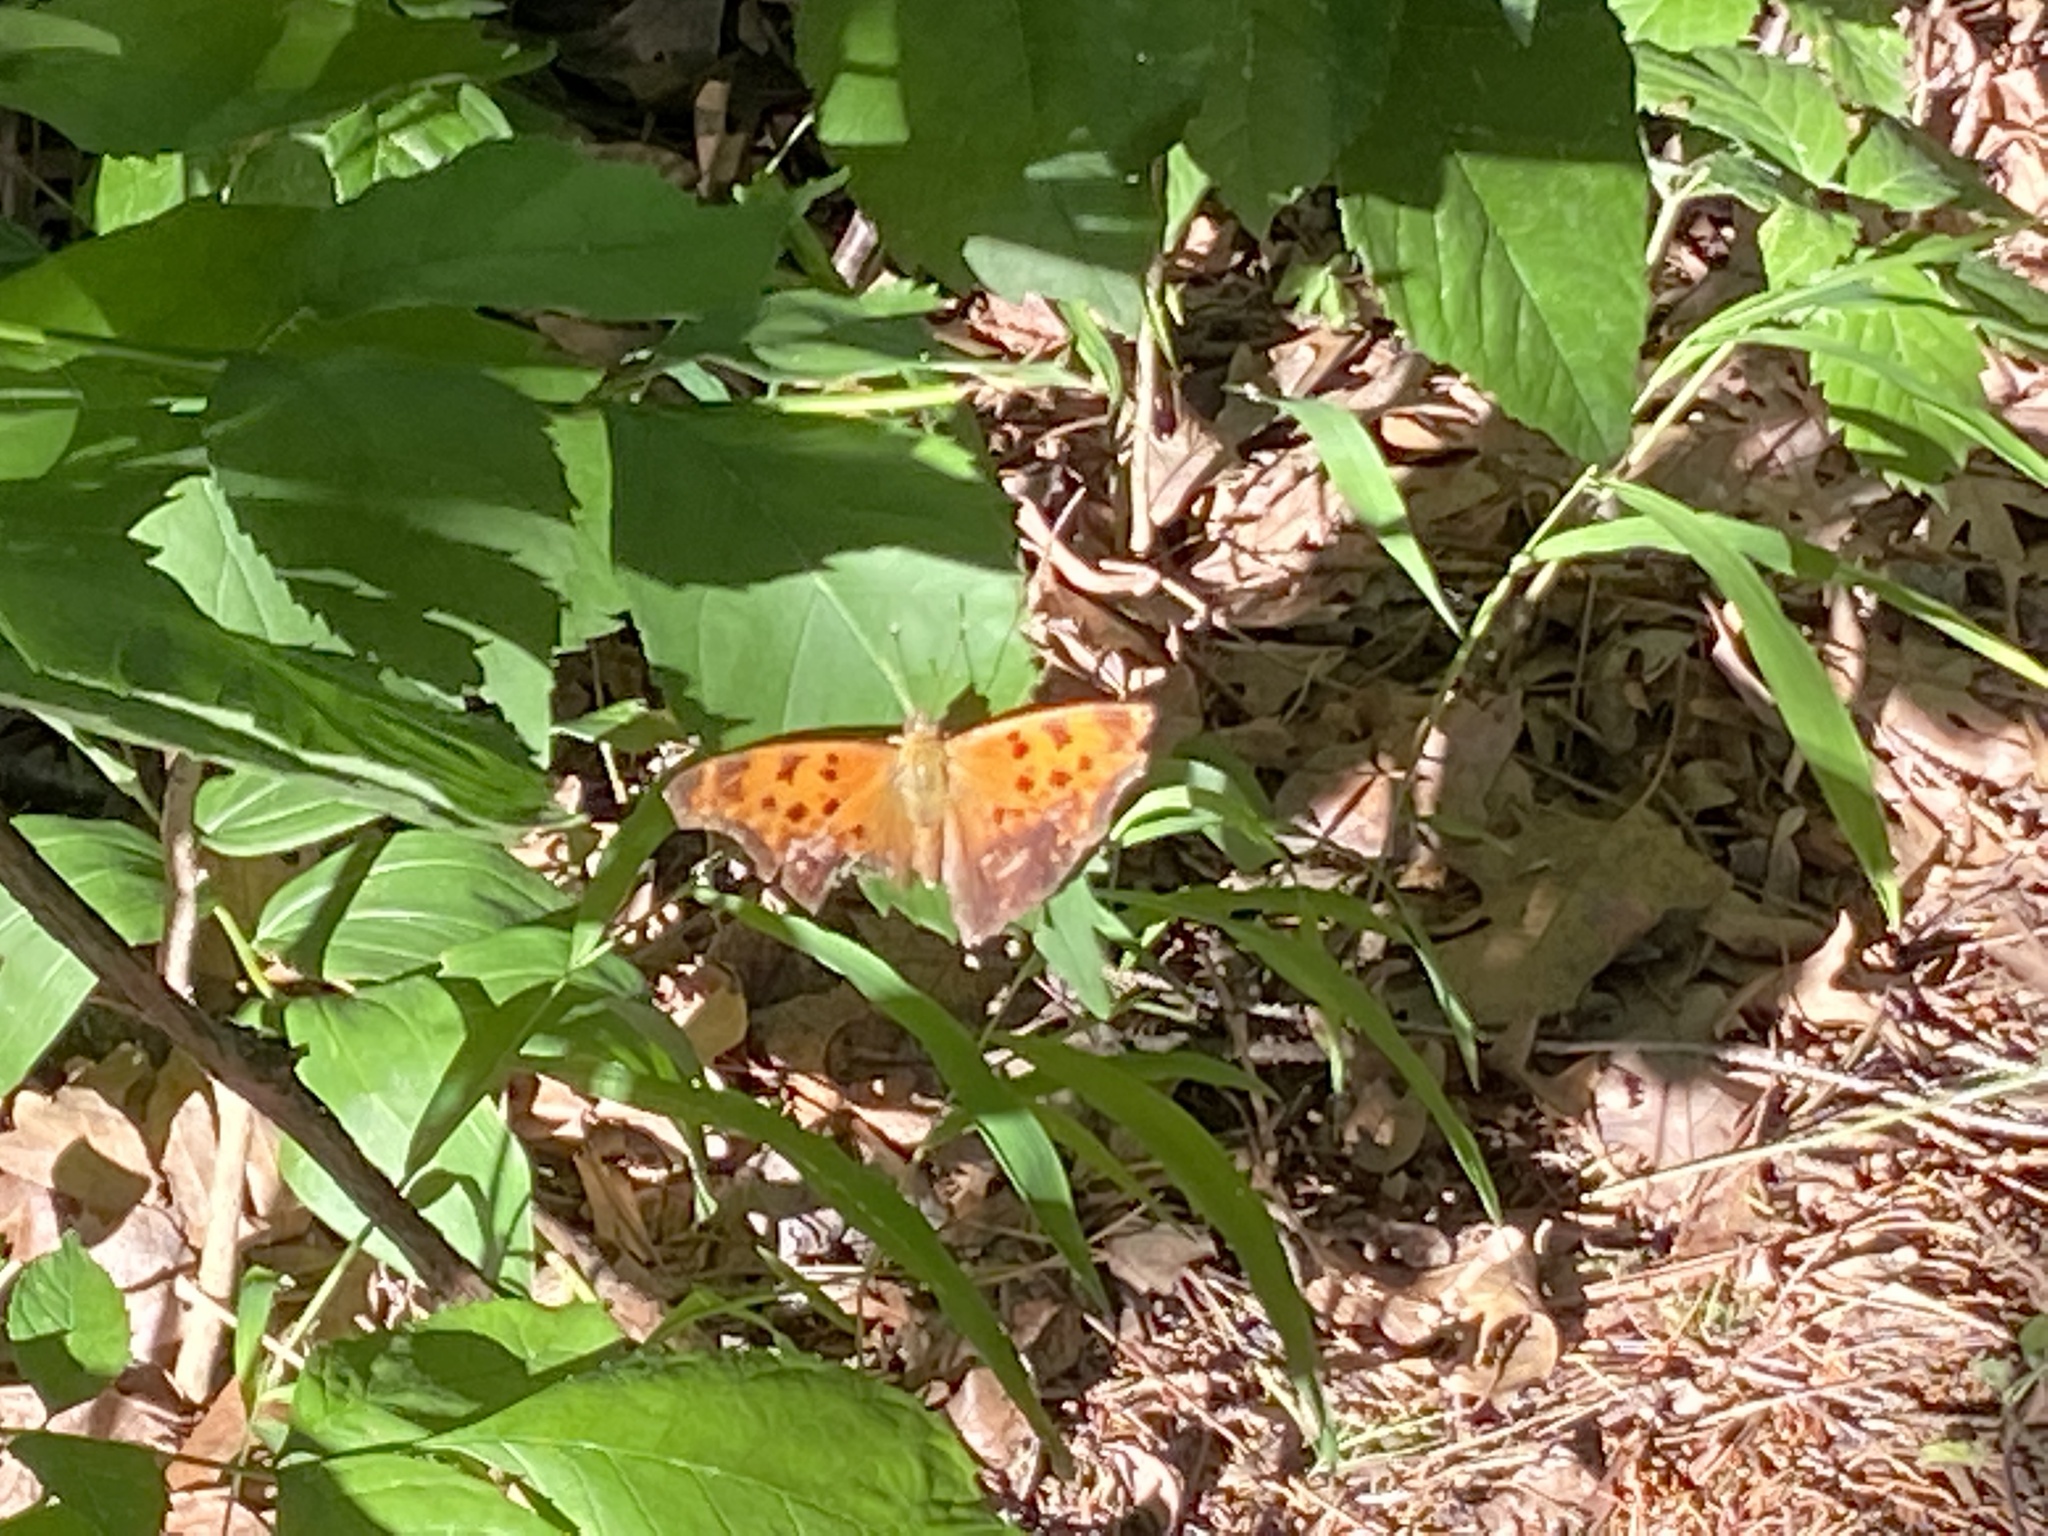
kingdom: Animalia
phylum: Arthropoda
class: Insecta
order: Lepidoptera
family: Nymphalidae
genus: Polygonia
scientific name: Polygonia comma
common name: Eastern comma
